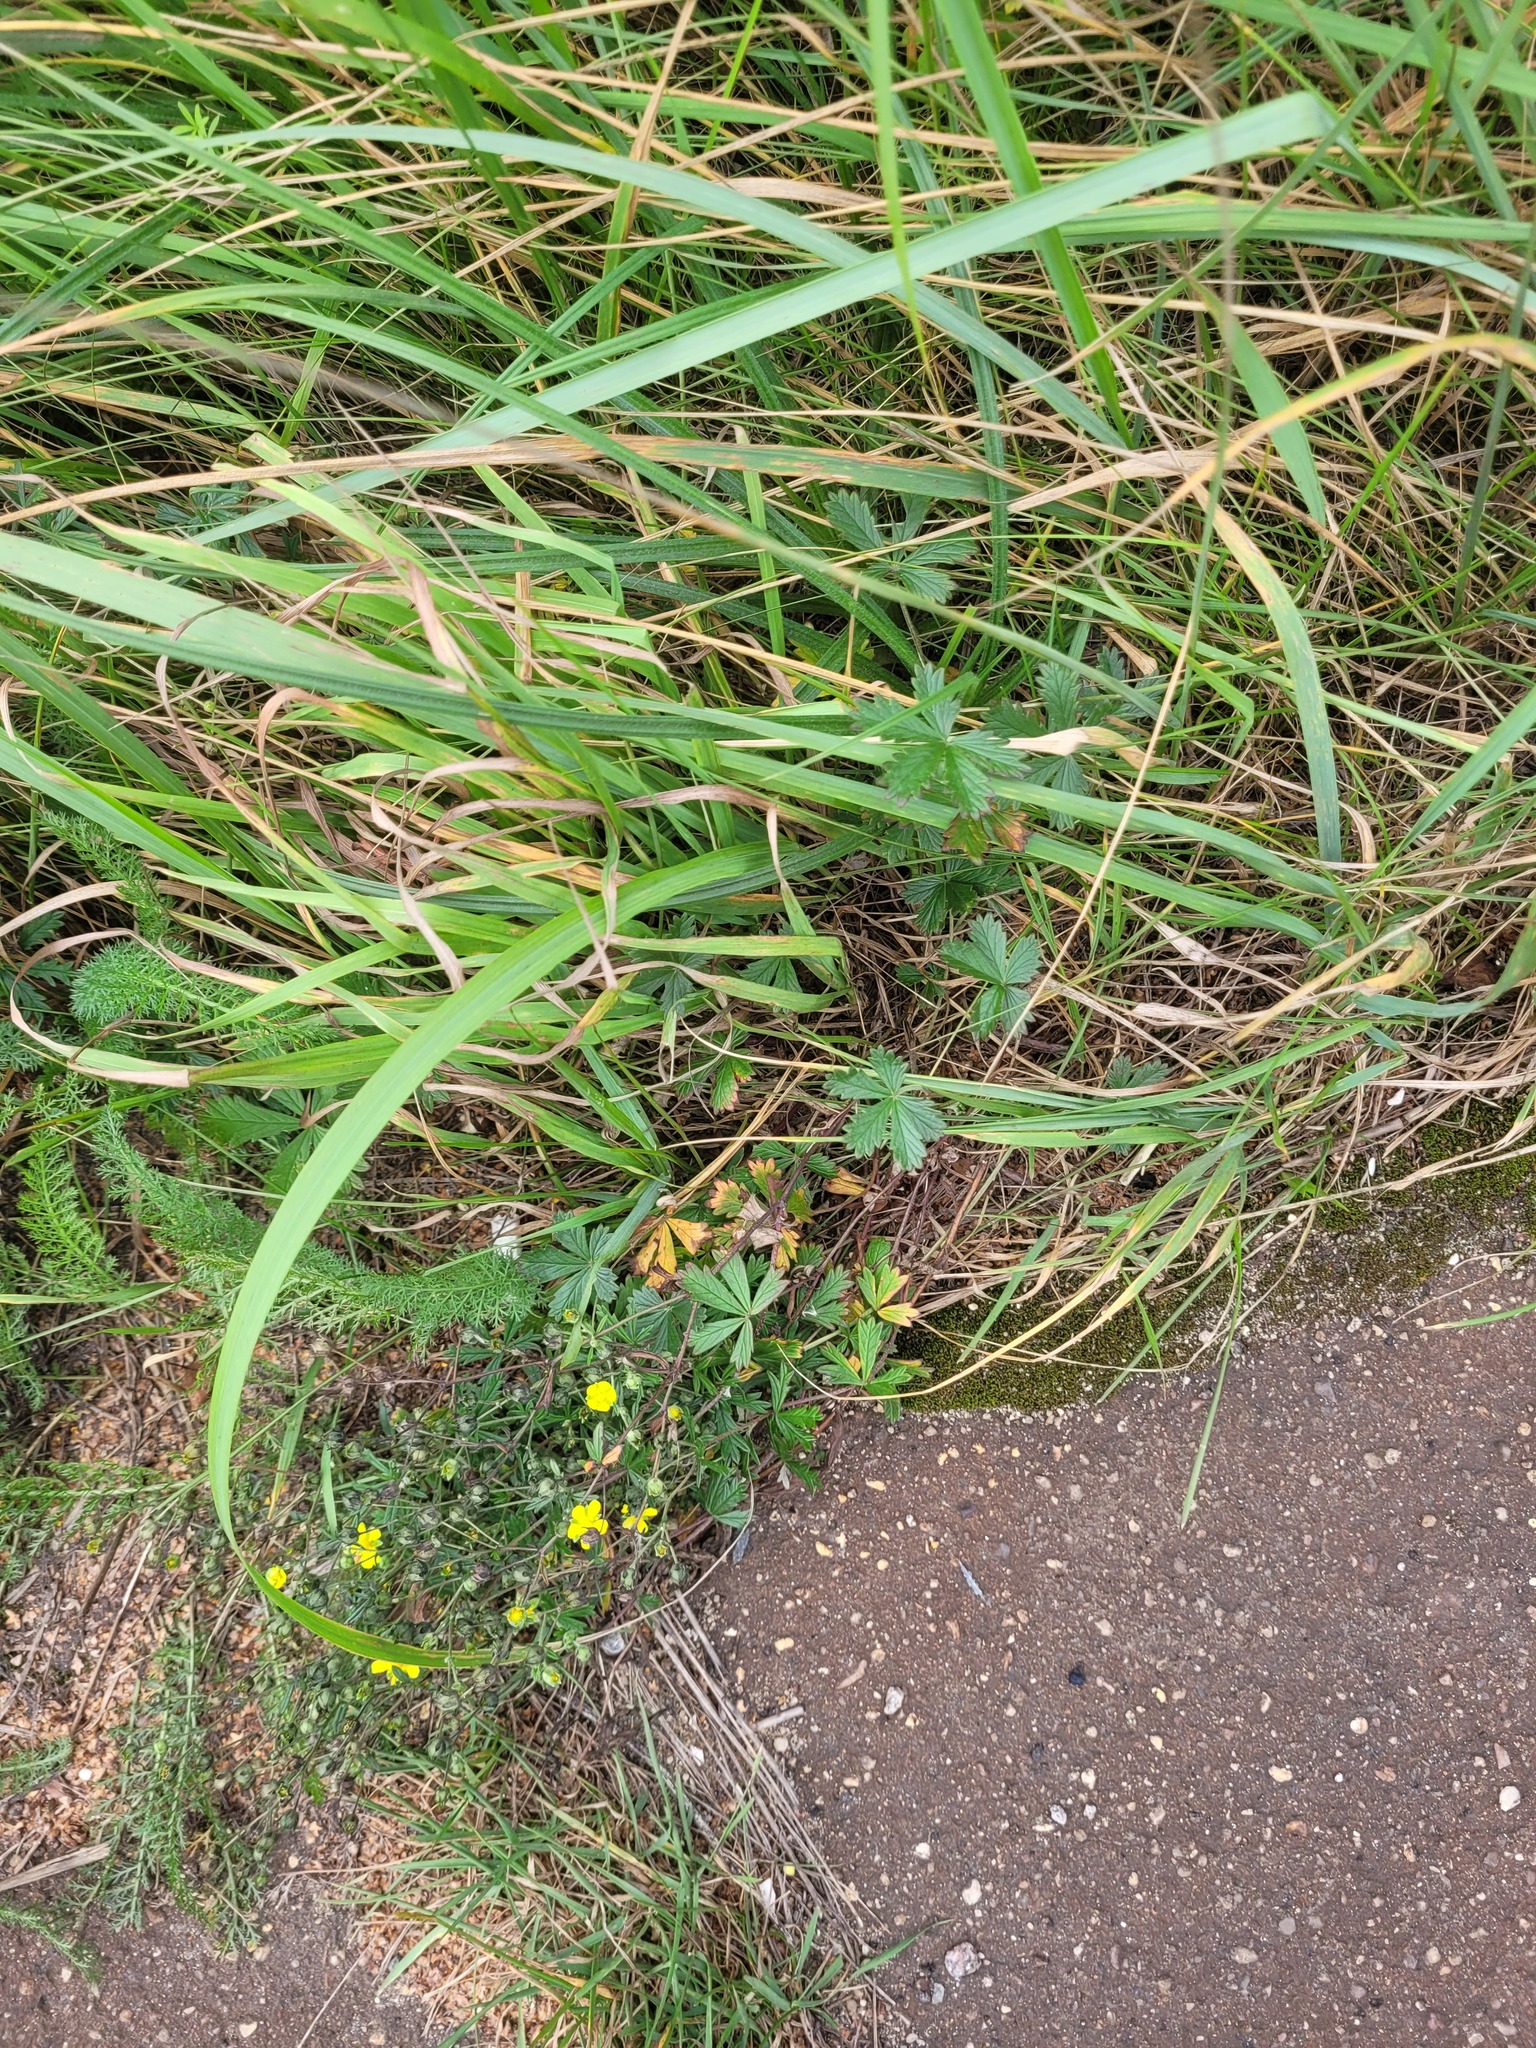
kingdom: Plantae
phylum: Tracheophyta
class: Magnoliopsida
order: Rosales
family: Rosaceae
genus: Potentilla
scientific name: Potentilla argentea
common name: Hoary cinquefoil
